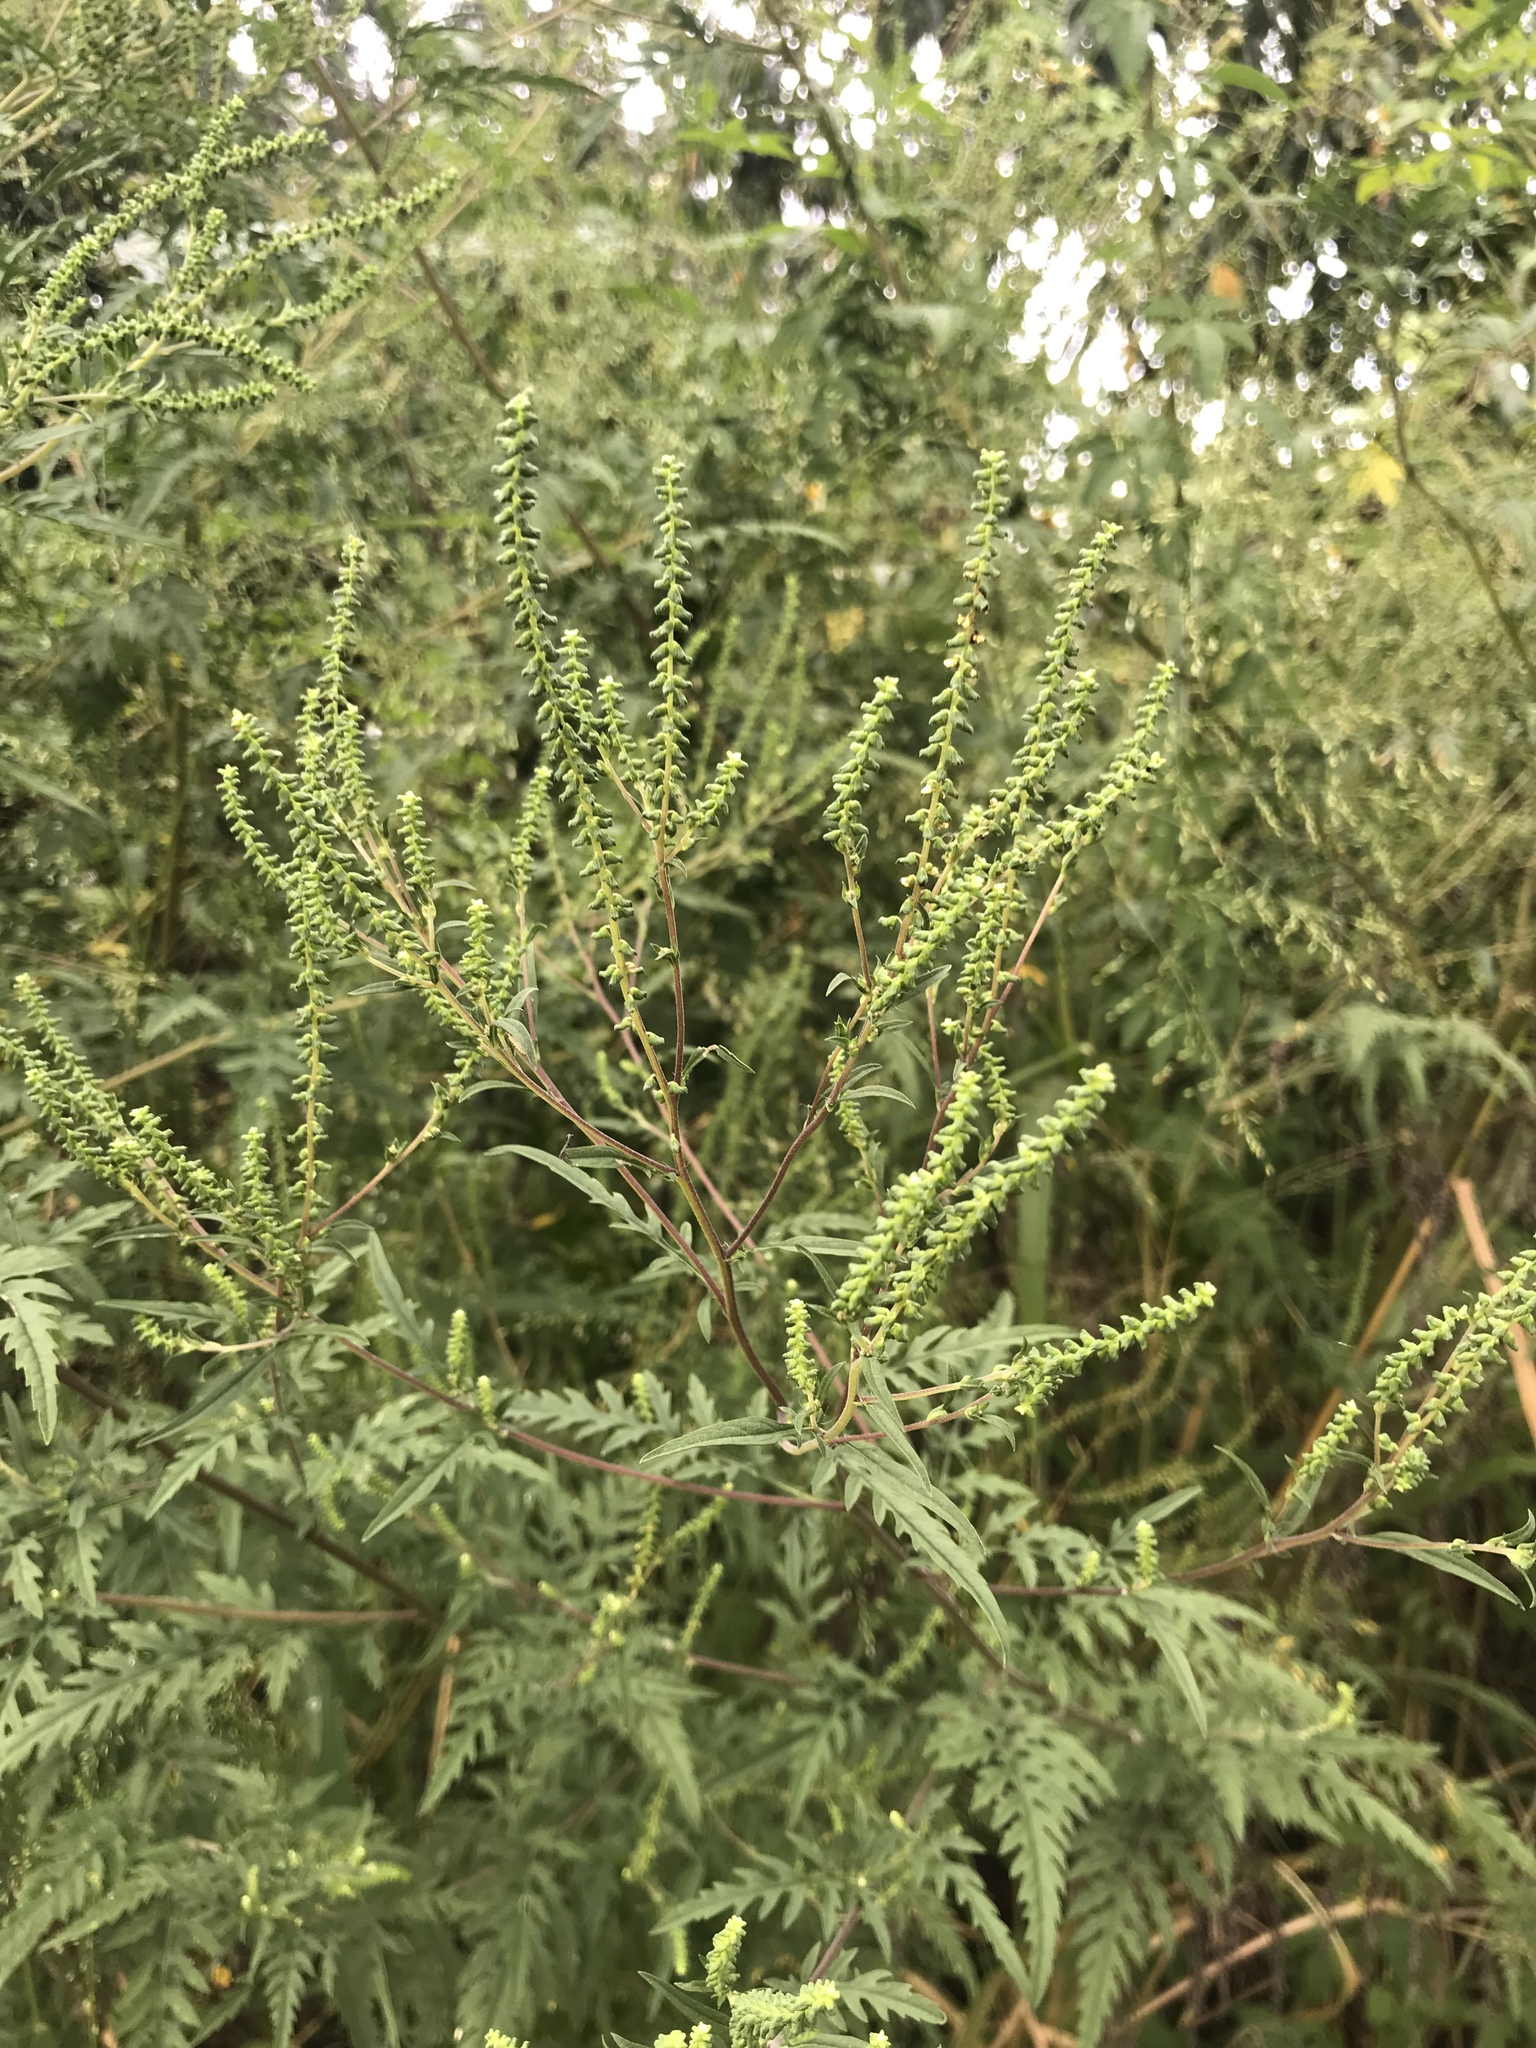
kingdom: Plantae
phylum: Tracheophyta
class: Magnoliopsida
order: Asterales
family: Asteraceae
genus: Ambrosia
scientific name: Ambrosia artemisiifolia
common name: Annual ragweed
